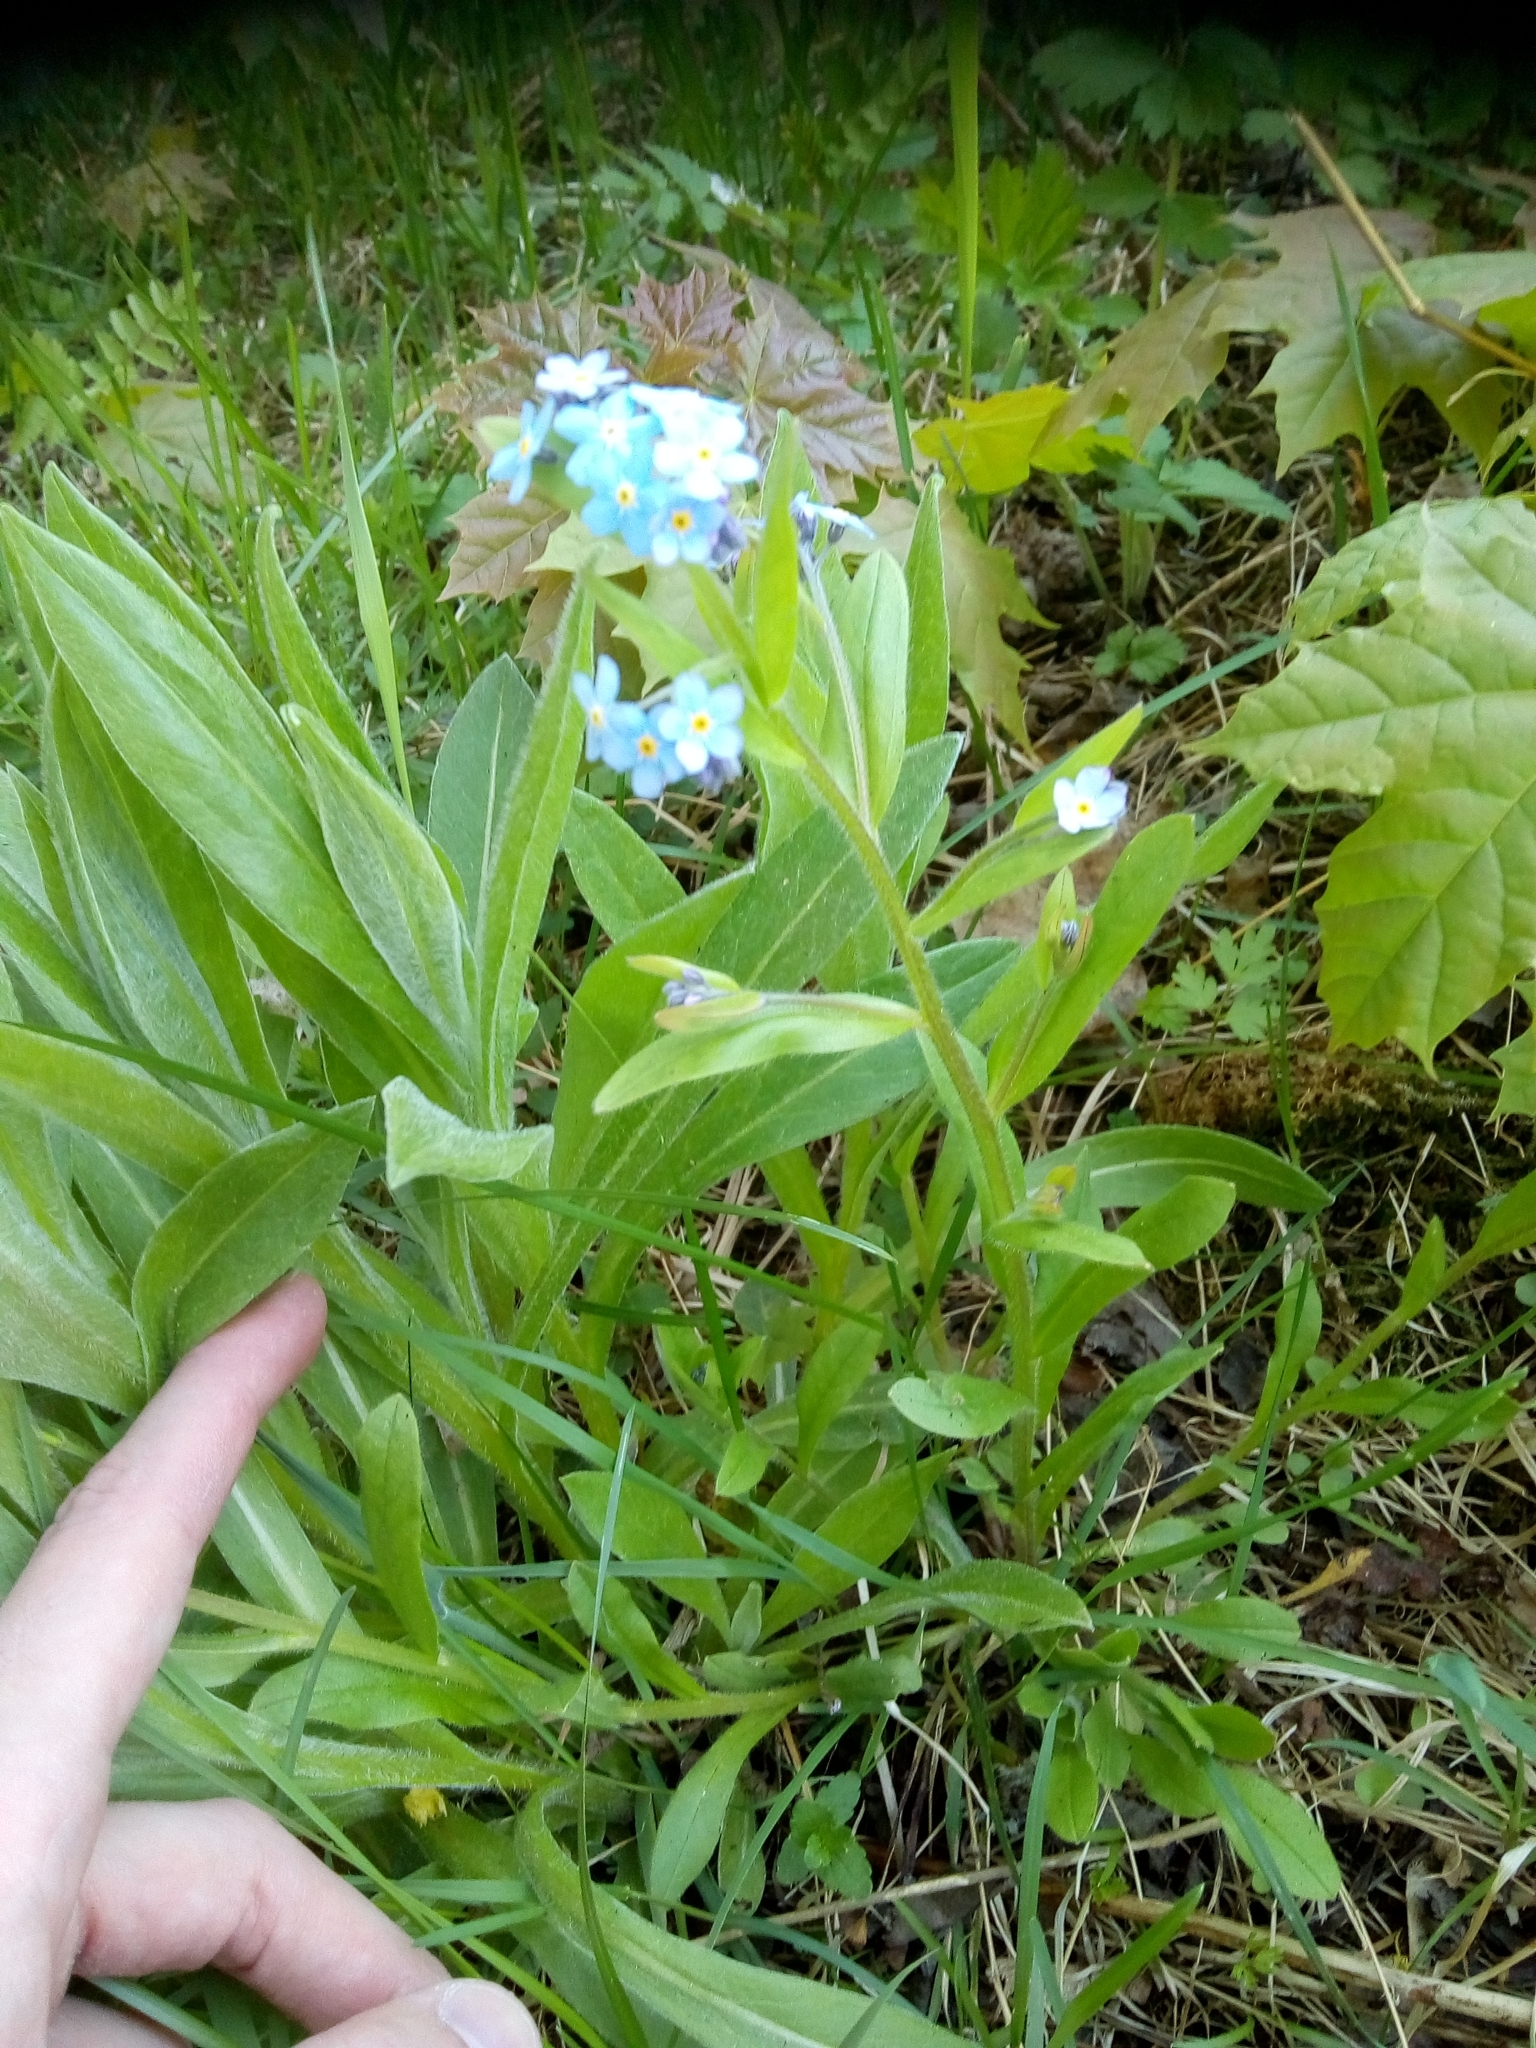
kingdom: Plantae
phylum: Tracheophyta
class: Magnoliopsida
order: Boraginales
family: Boraginaceae
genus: Myosotis
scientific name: Myosotis sylvatica
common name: Wood forget-me-not
